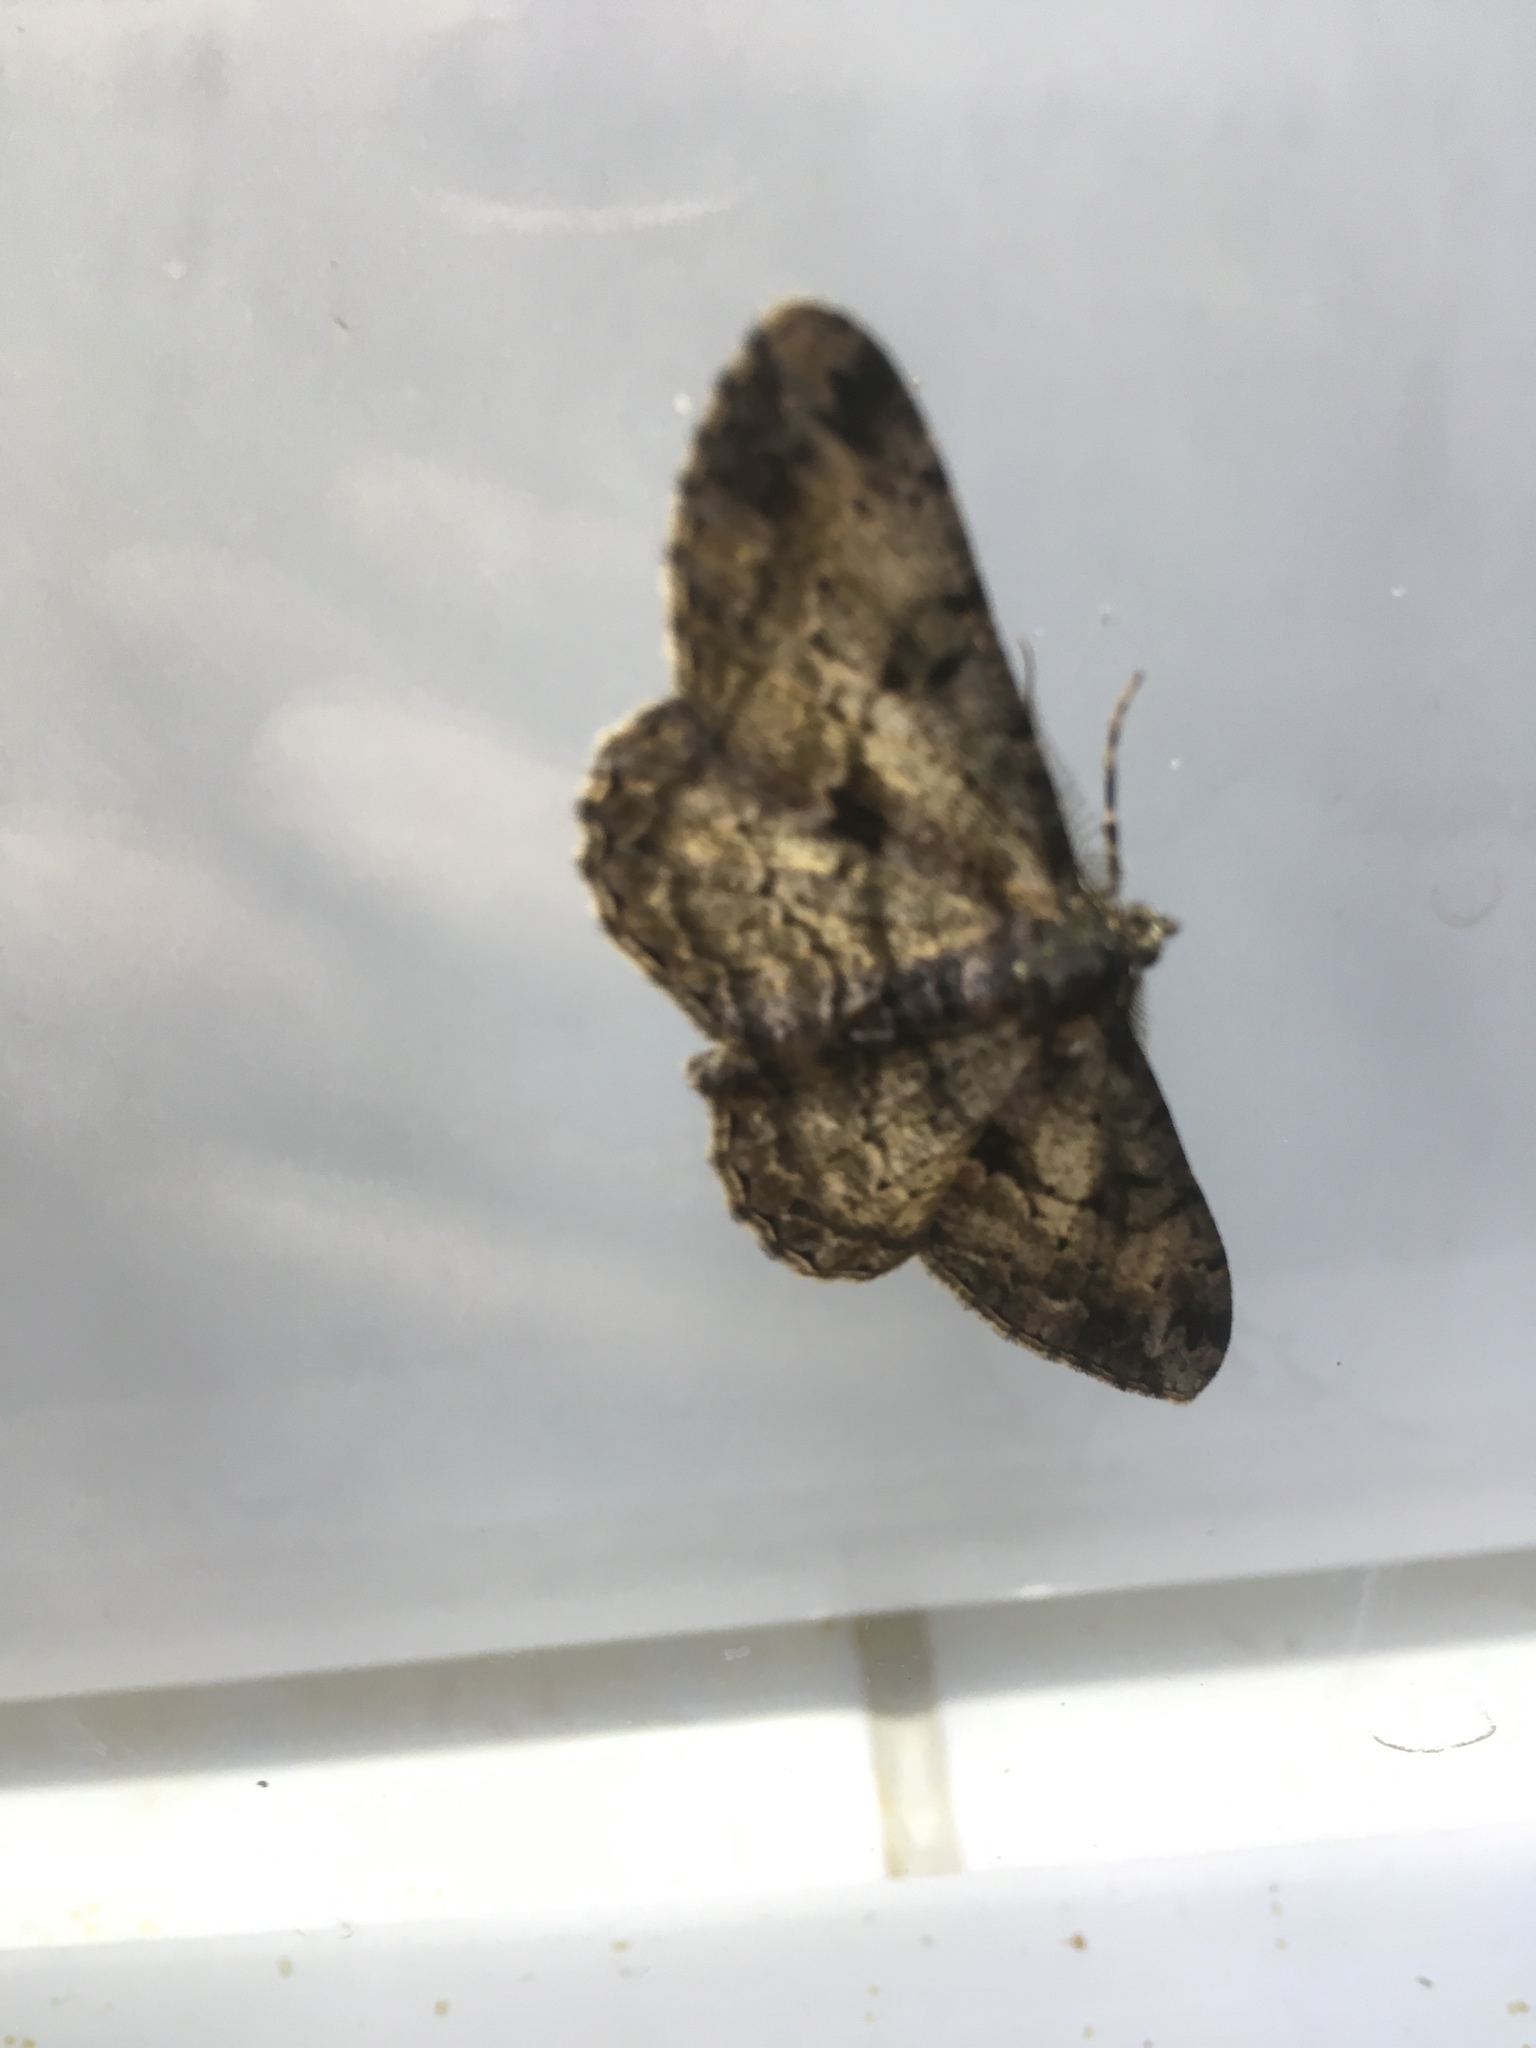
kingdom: Animalia
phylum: Arthropoda
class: Insecta
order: Lepidoptera
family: Geometridae
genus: Peribatodes
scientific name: Peribatodes rhomboidaria
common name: Willow beauty
